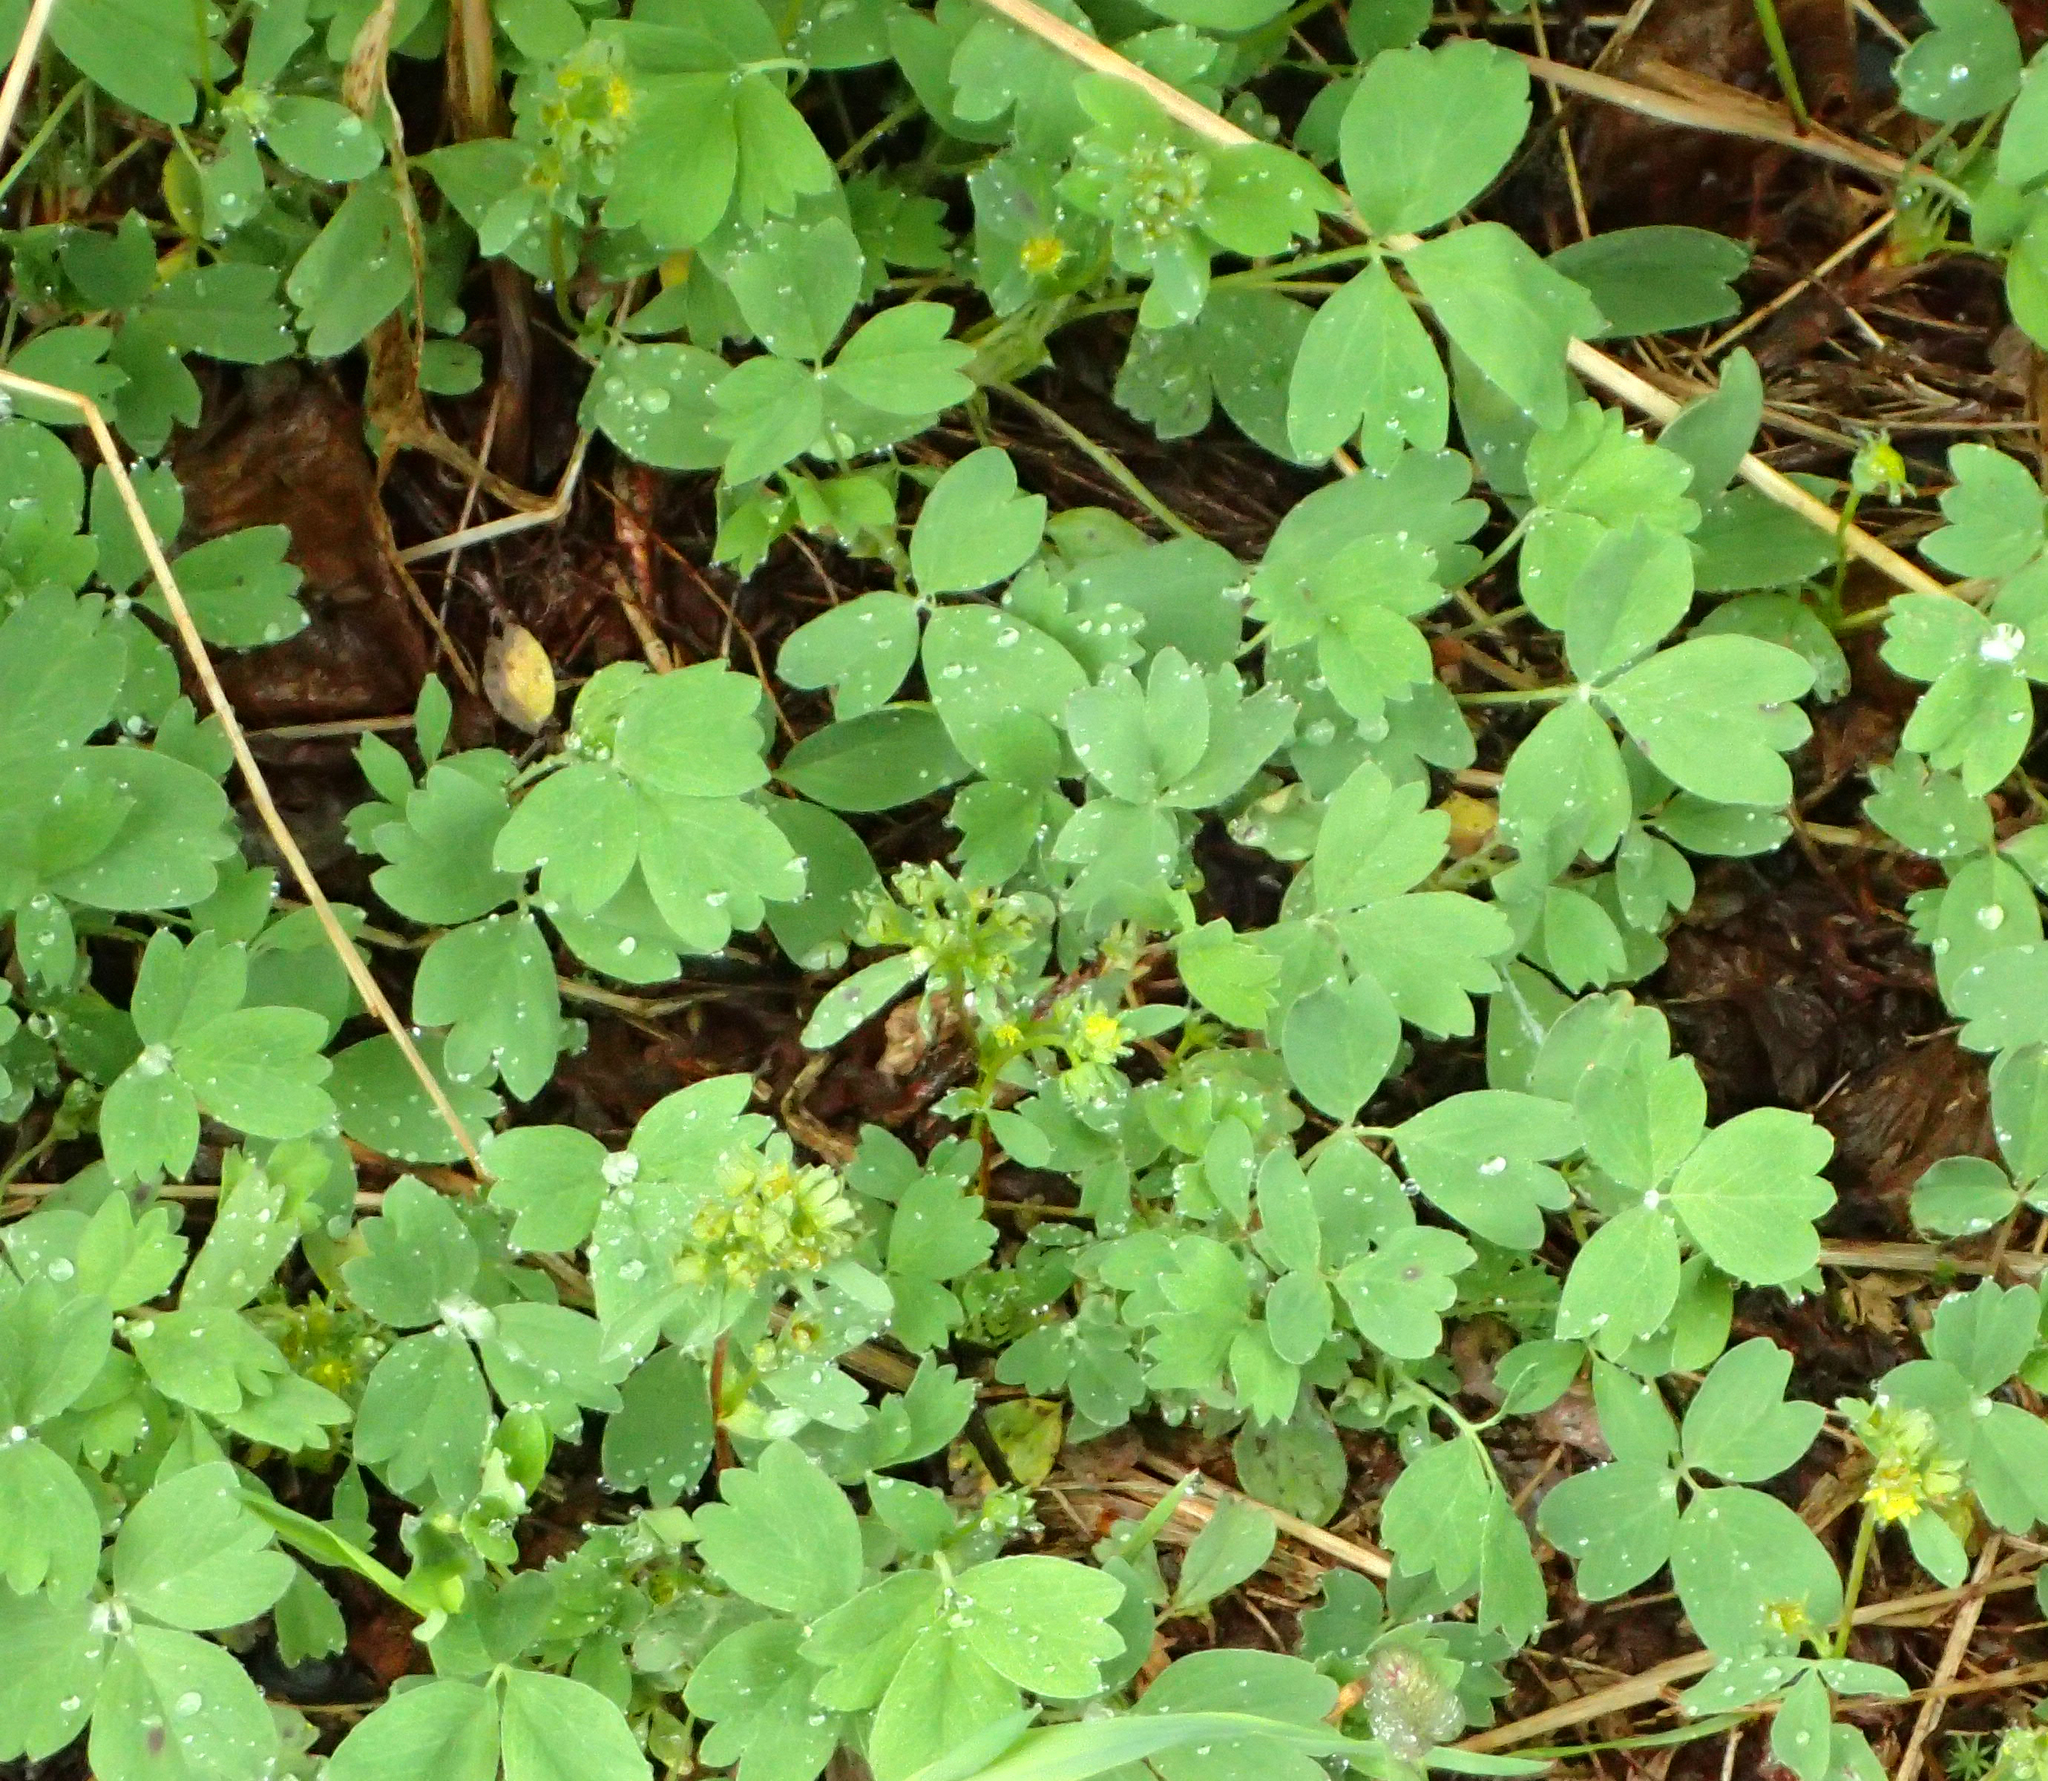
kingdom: Plantae
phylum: Tracheophyta
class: Magnoliopsida
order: Rosales
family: Rosaceae
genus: Sibbaldia
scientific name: Sibbaldia procumbens
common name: Creeping sibbaldia
